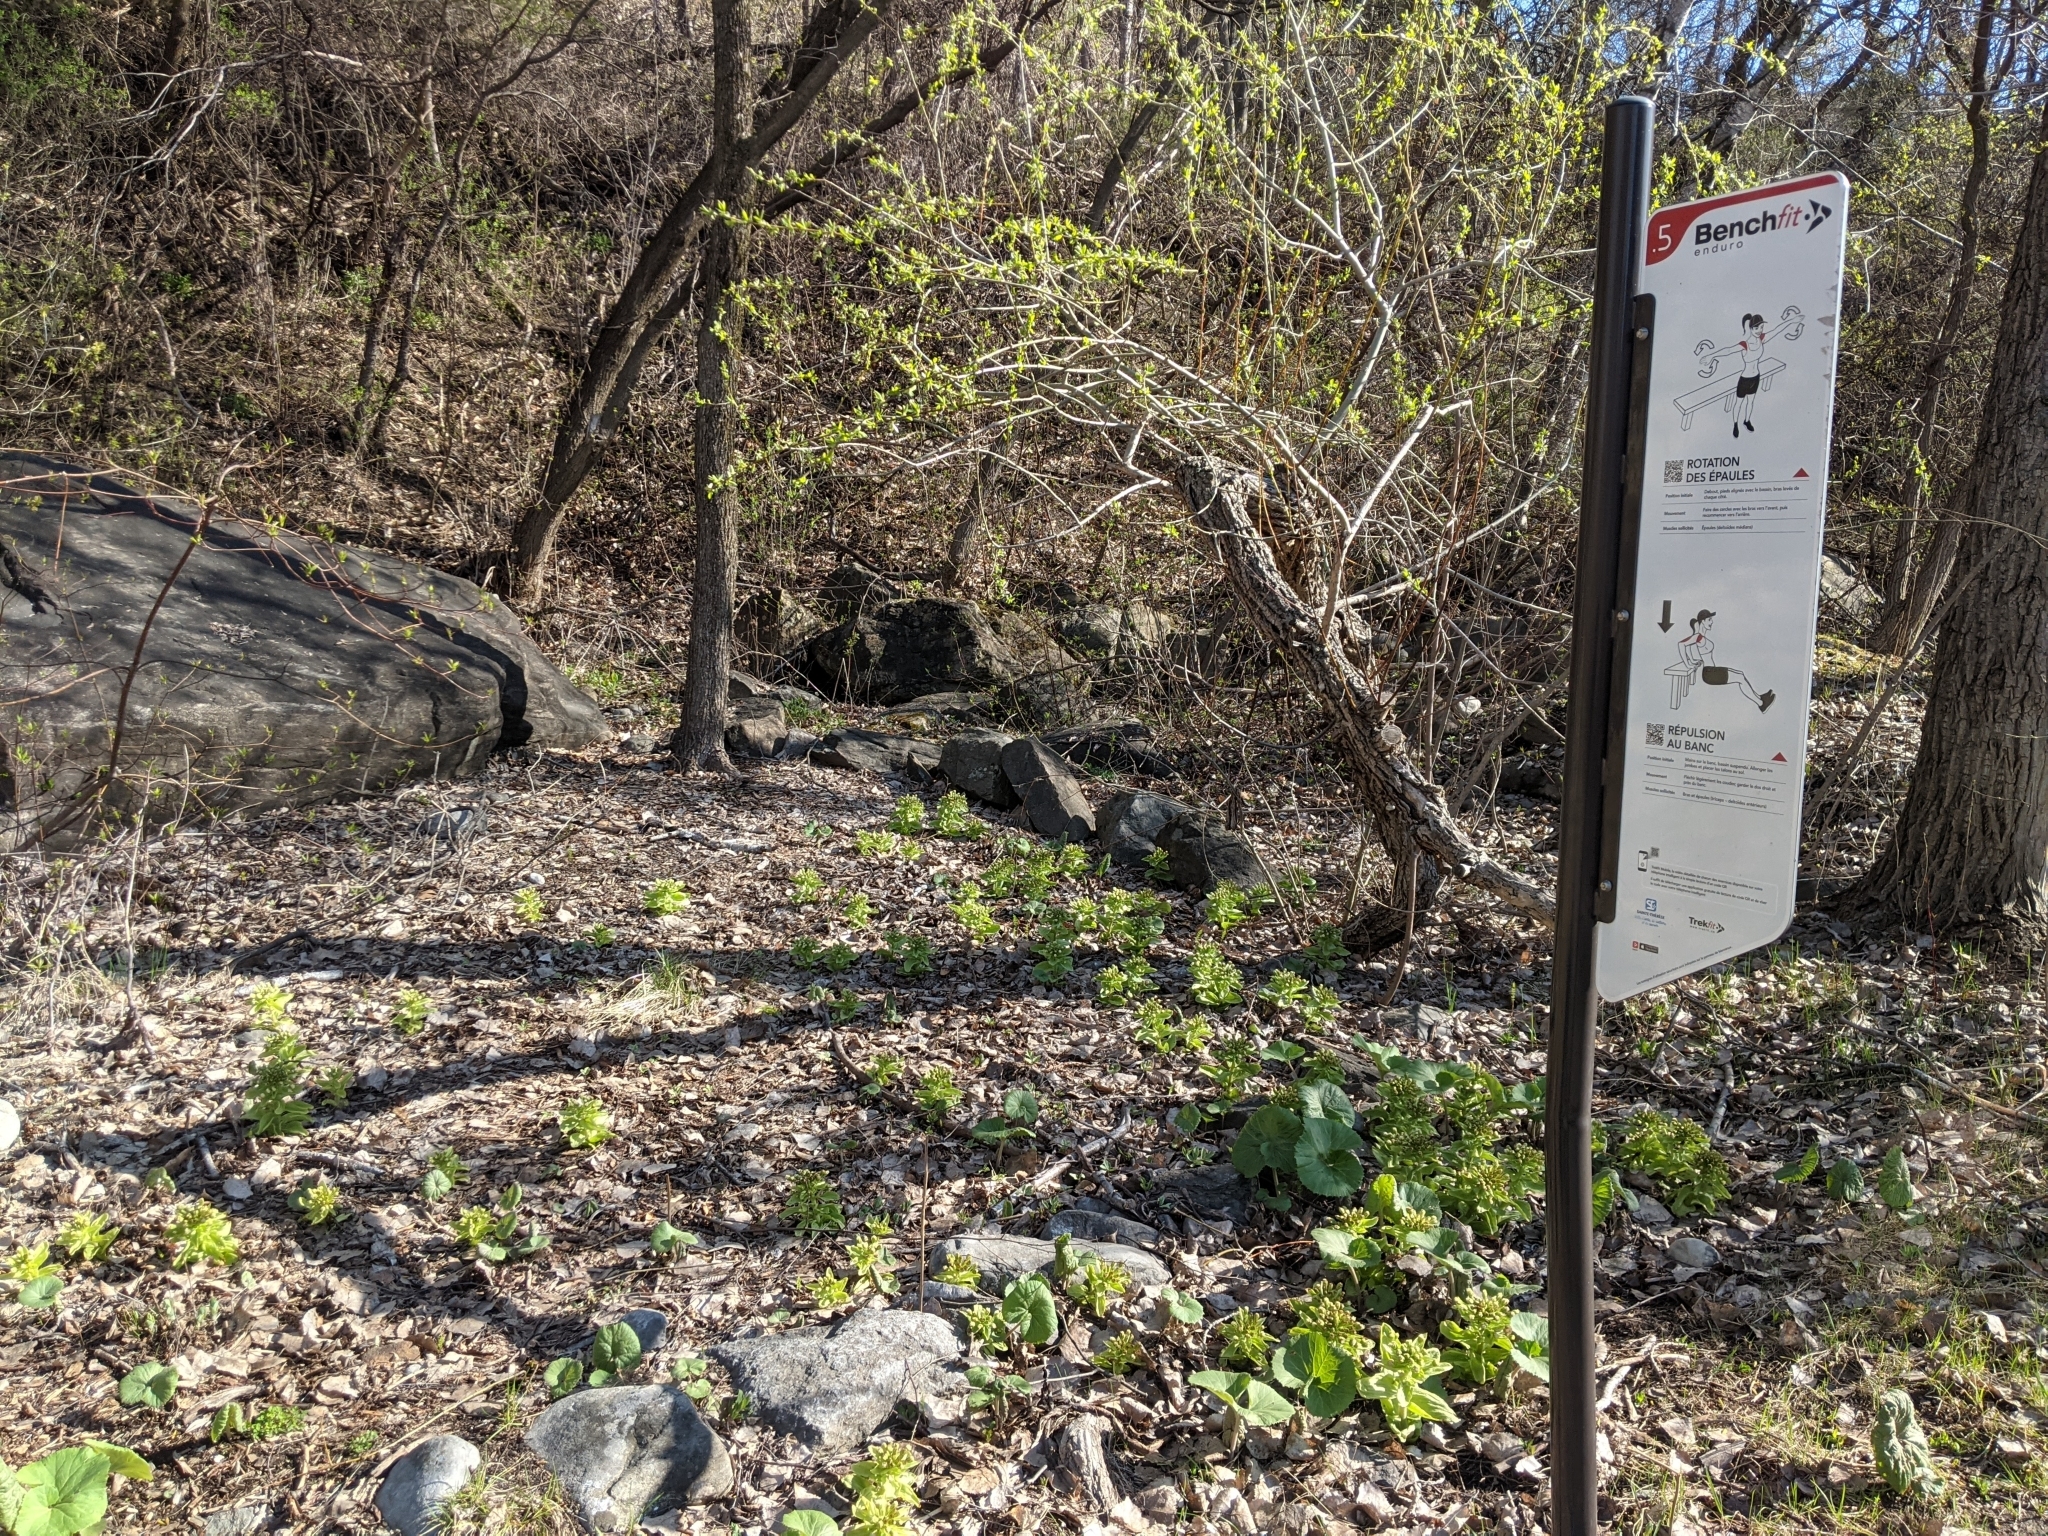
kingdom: Plantae
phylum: Tracheophyta
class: Magnoliopsida
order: Asterales
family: Asteraceae
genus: Petasites
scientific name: Petasites japonicus
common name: Giant butterbur
